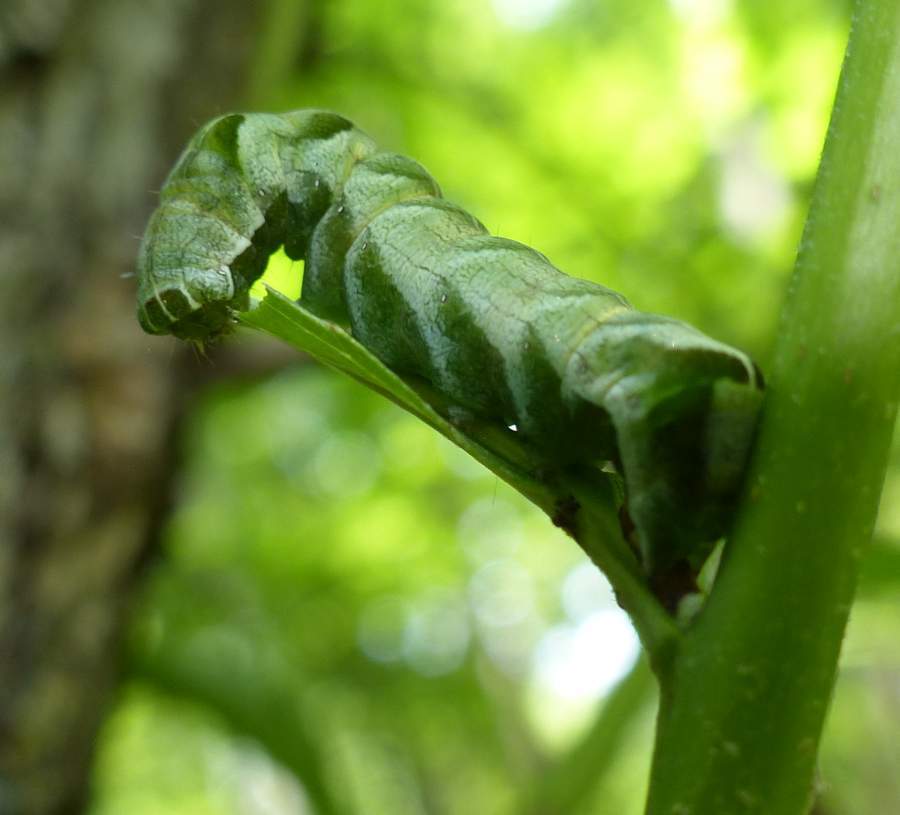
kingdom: Animalia
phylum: Arthropoda
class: Insecta
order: Lepidoptera
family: Noctuidae
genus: Melanchra
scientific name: Melanchra adjuncta
